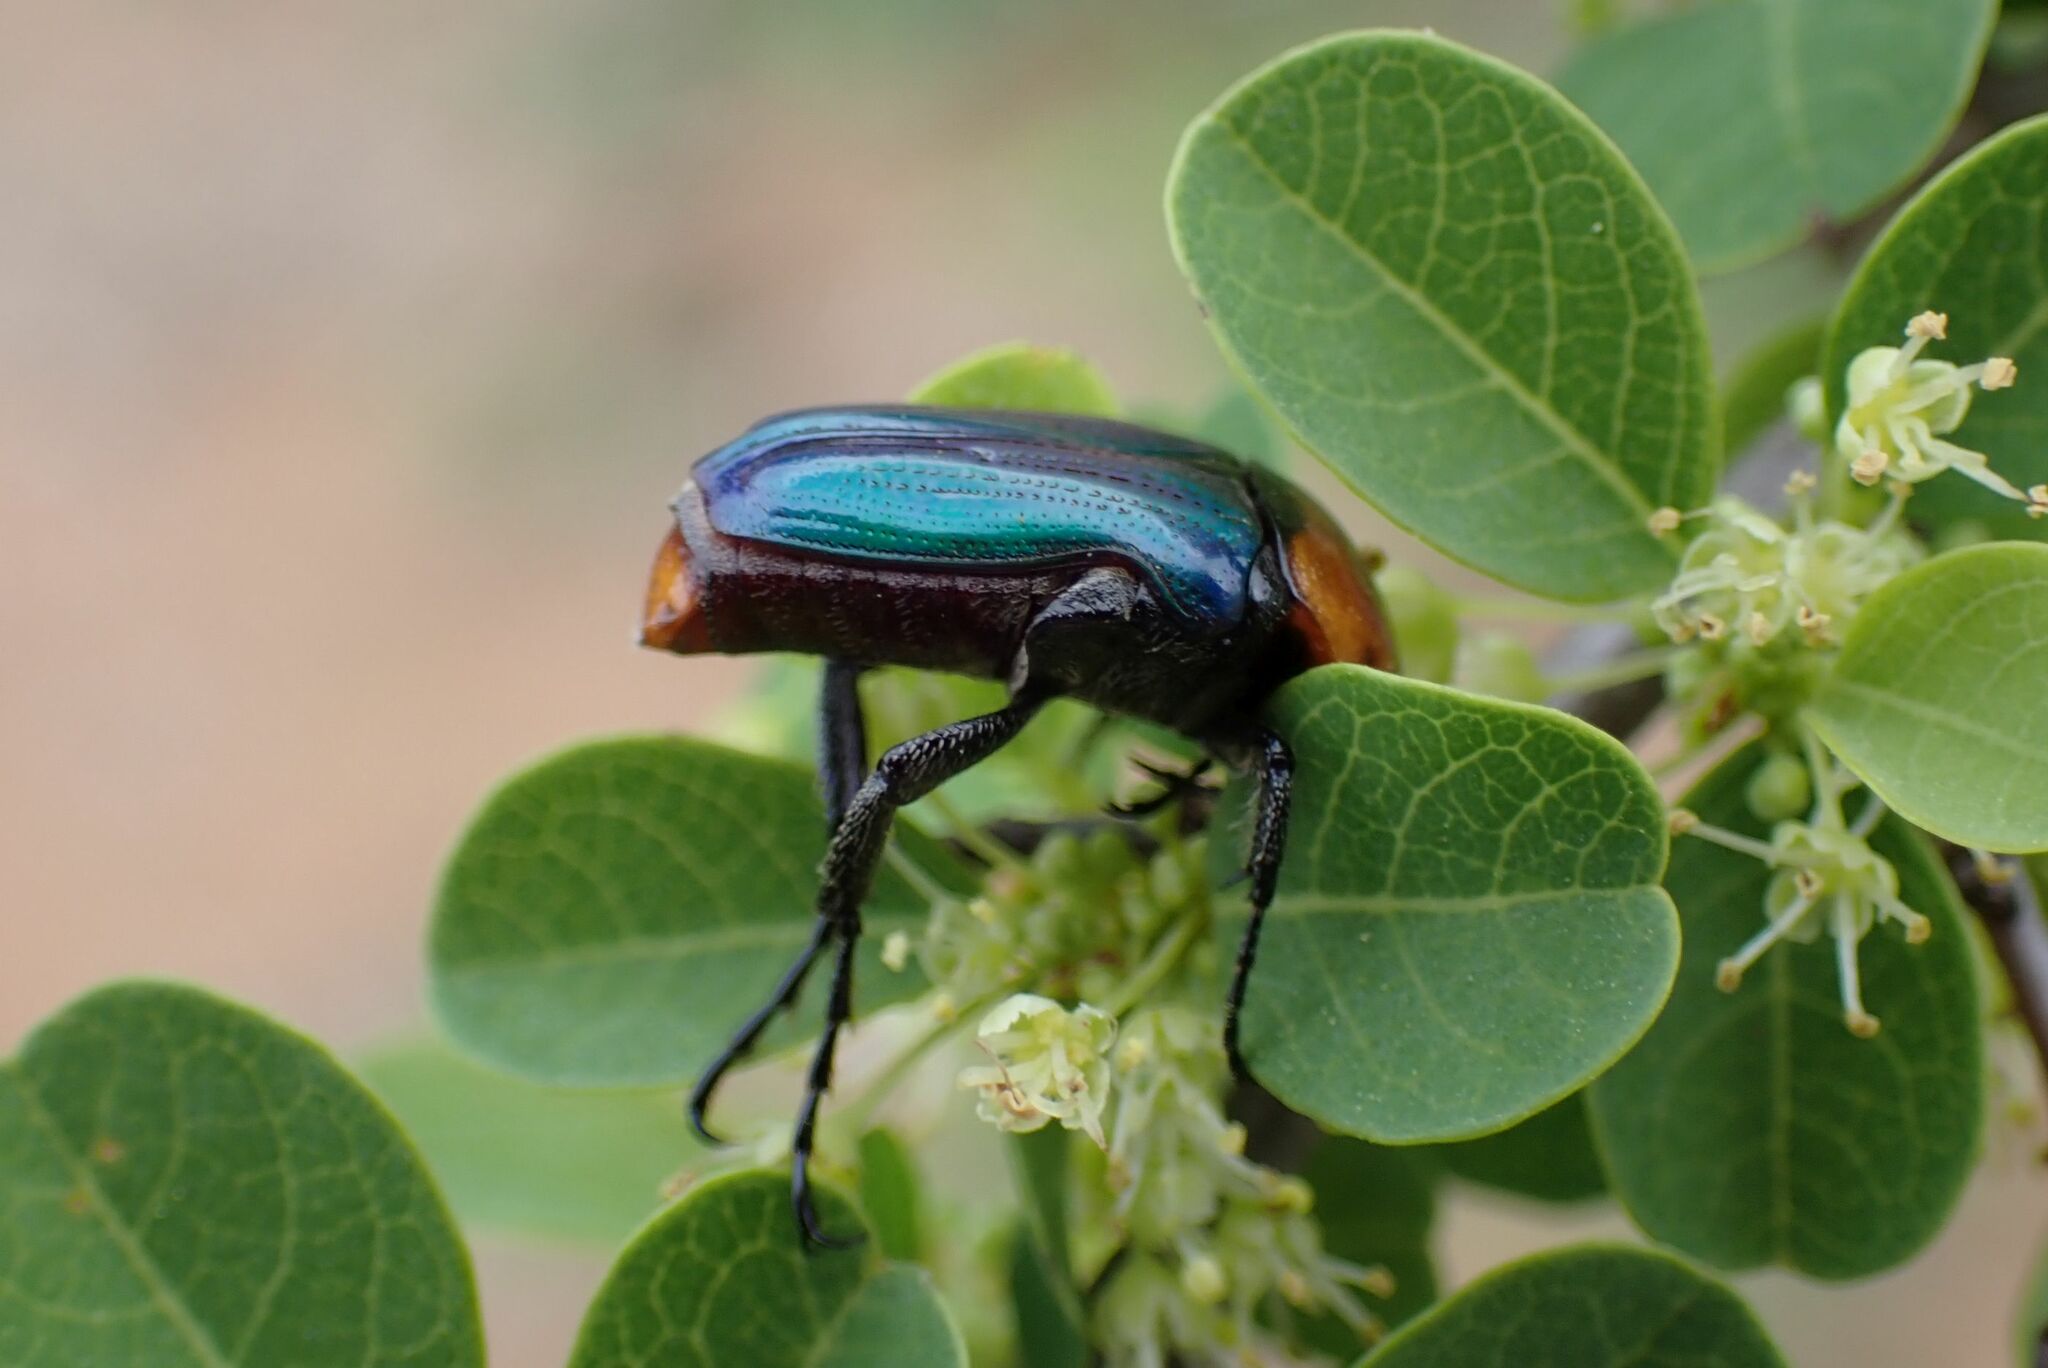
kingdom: Animalia
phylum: Arthropoda
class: Insecta
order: Coleoptera
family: Scarabaeidae
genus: Leucocelis
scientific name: Leucocelis amethystina
